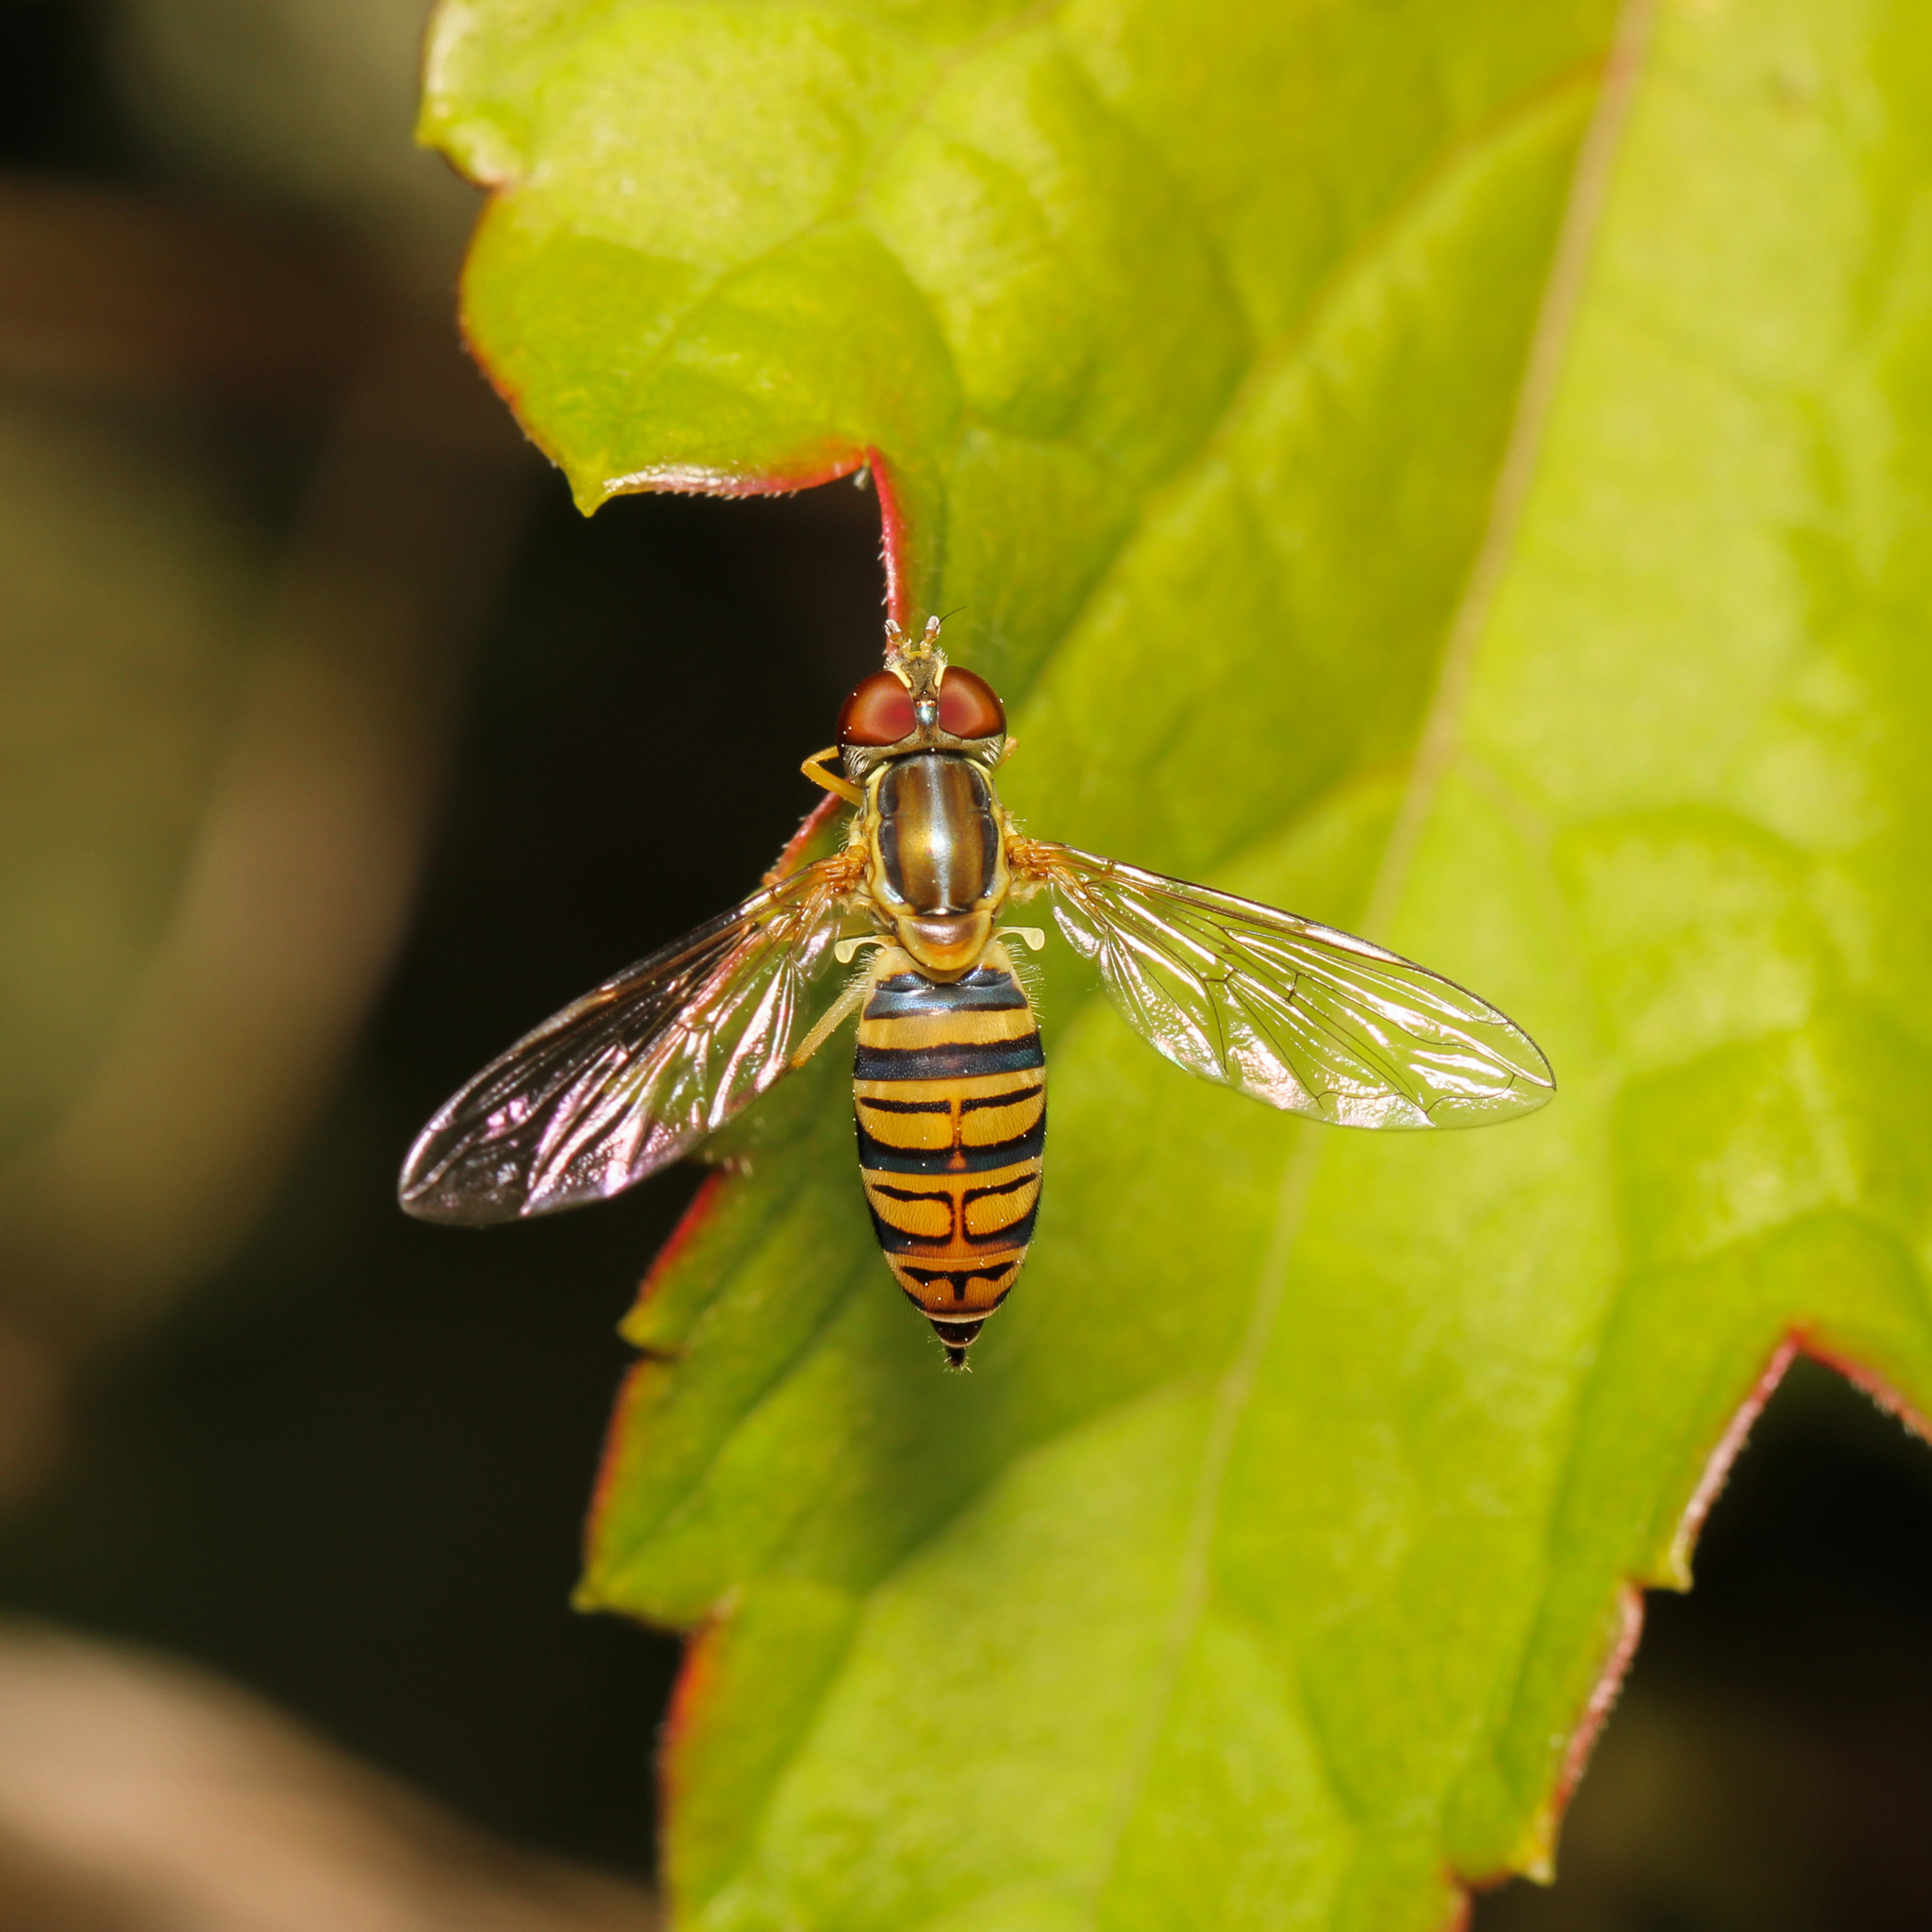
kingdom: Animalia
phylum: Arthropoda
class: Insecta
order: Diptera
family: Syrphidae
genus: Toxomerus
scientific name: Toxomerus politus
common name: Maize calligrapher
